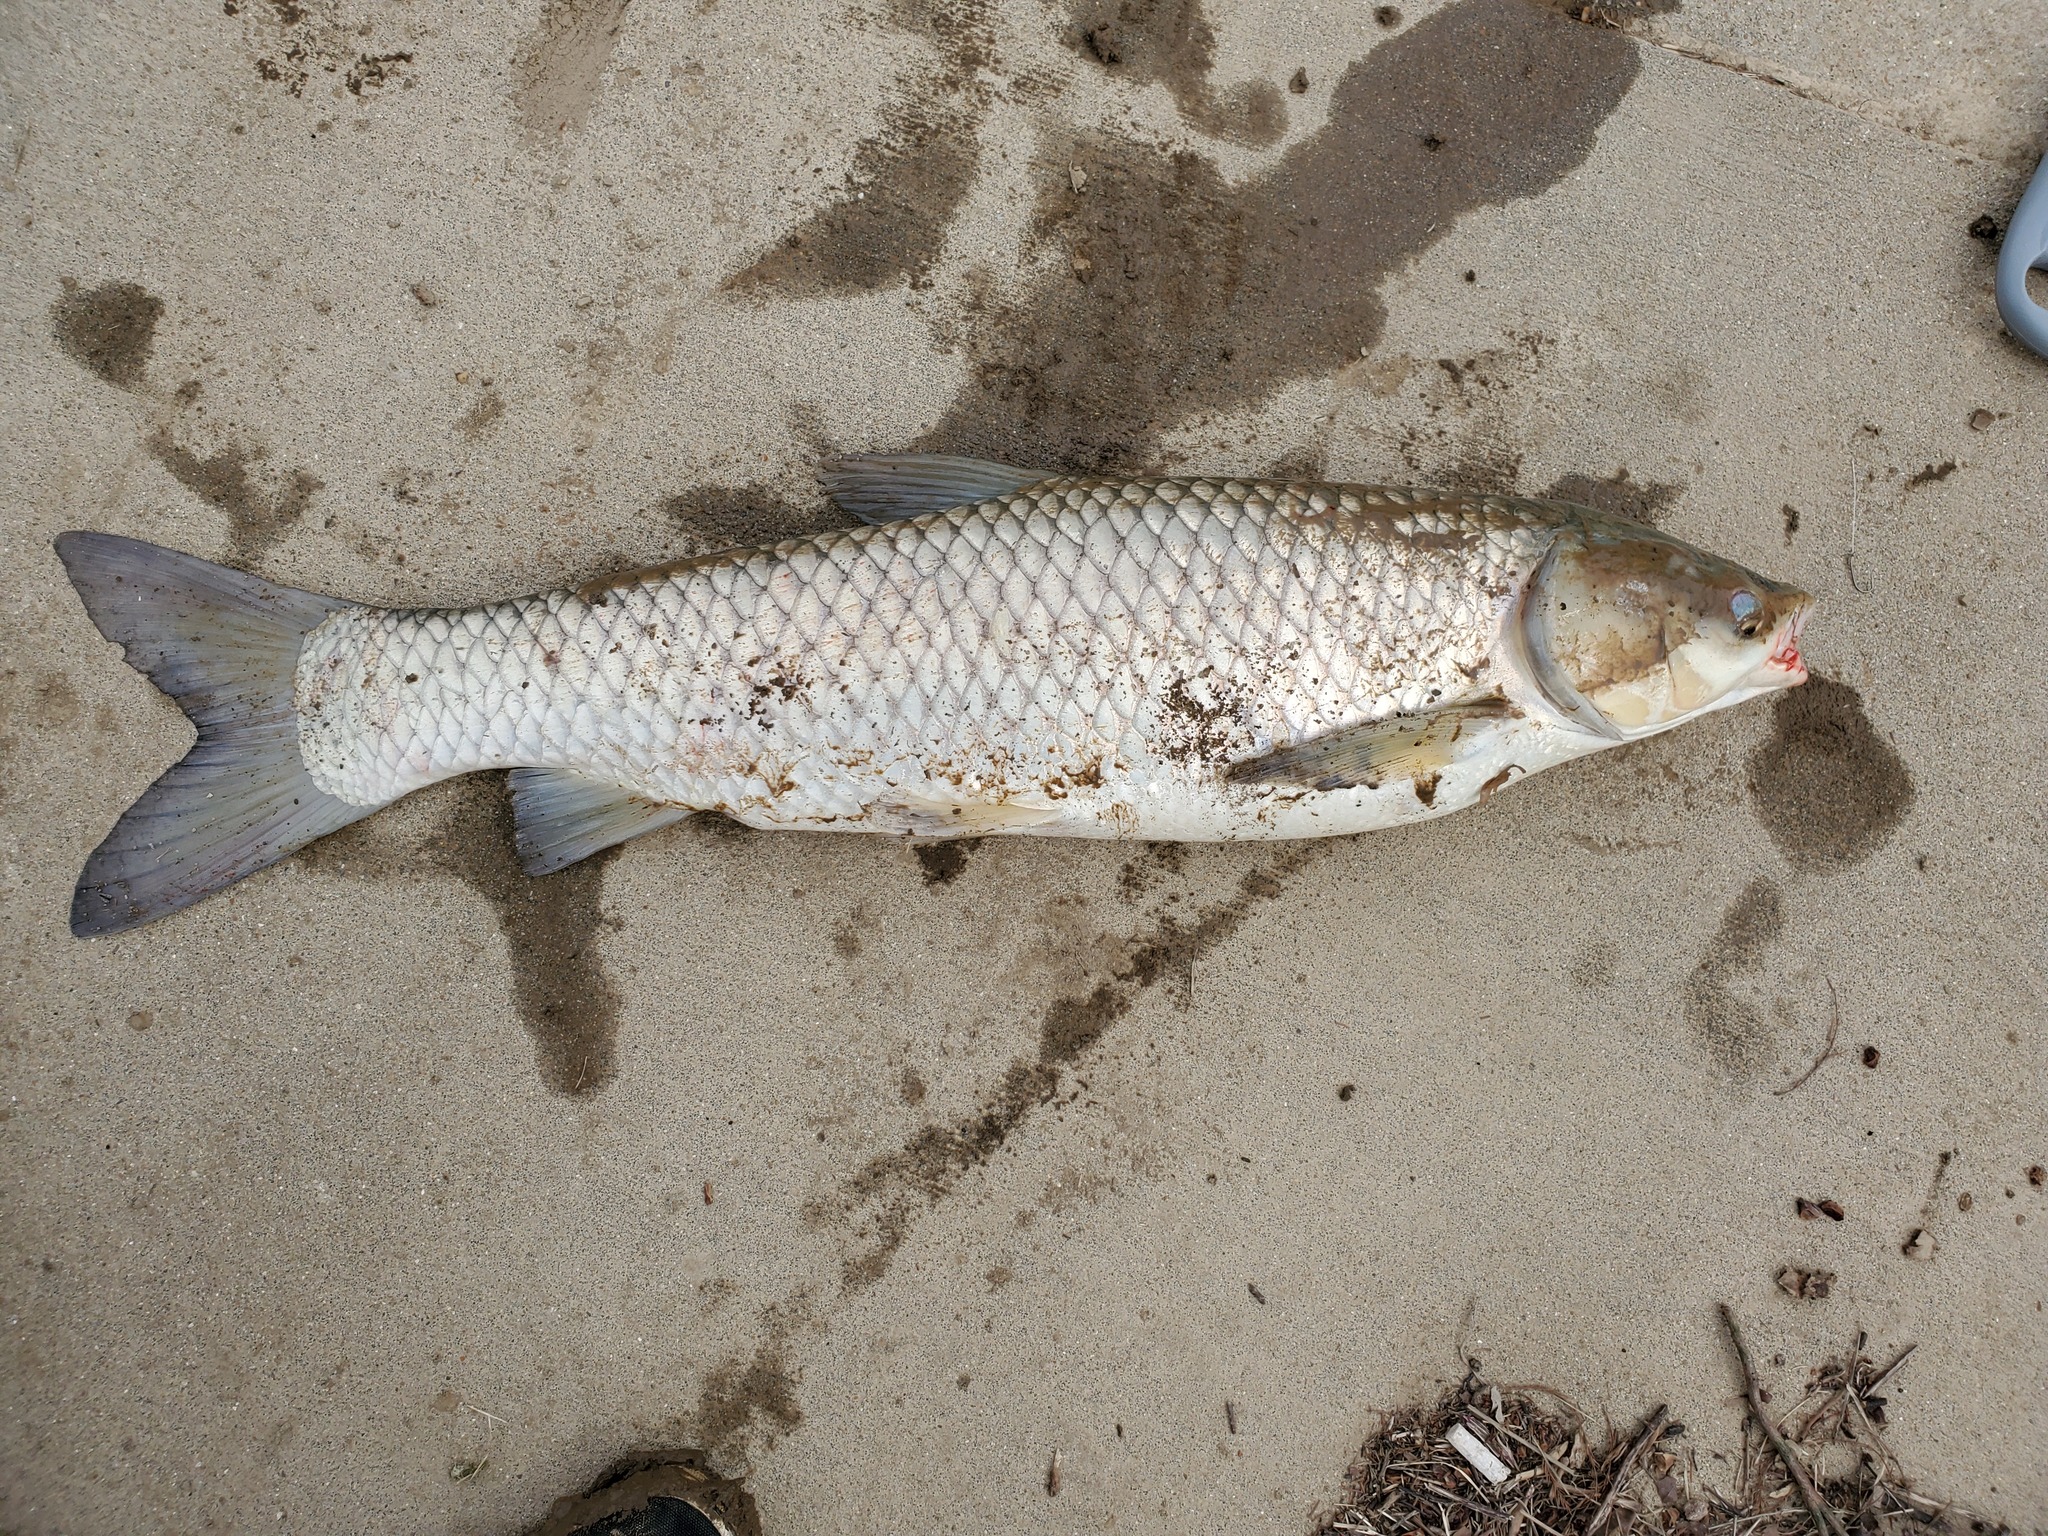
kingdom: Animalia
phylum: Chordata
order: Cypriniformes
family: Cyprinidae
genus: Ctenopharyngodon
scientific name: Ctenopharyngodon idella
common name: Grass carp
